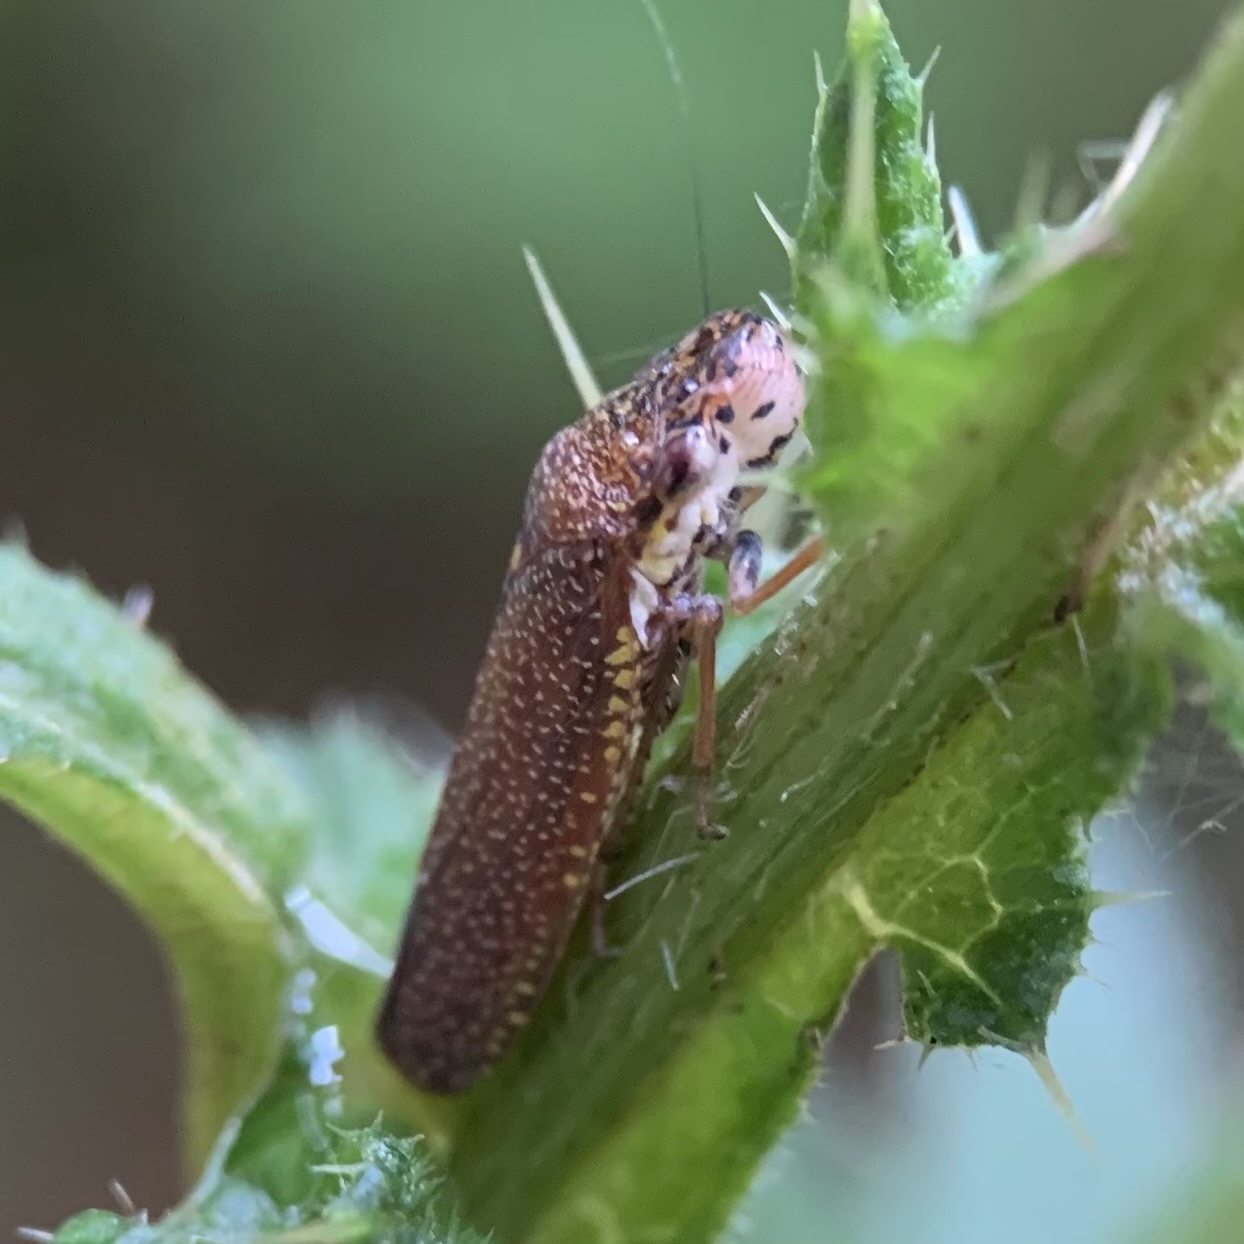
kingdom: Animalia
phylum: Arthropoda
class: Insecta
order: Hemiptera
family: Cicadellidae
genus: Paraulacizes
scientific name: Paraulacizes irrorata
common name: Speckled sharpshooter
